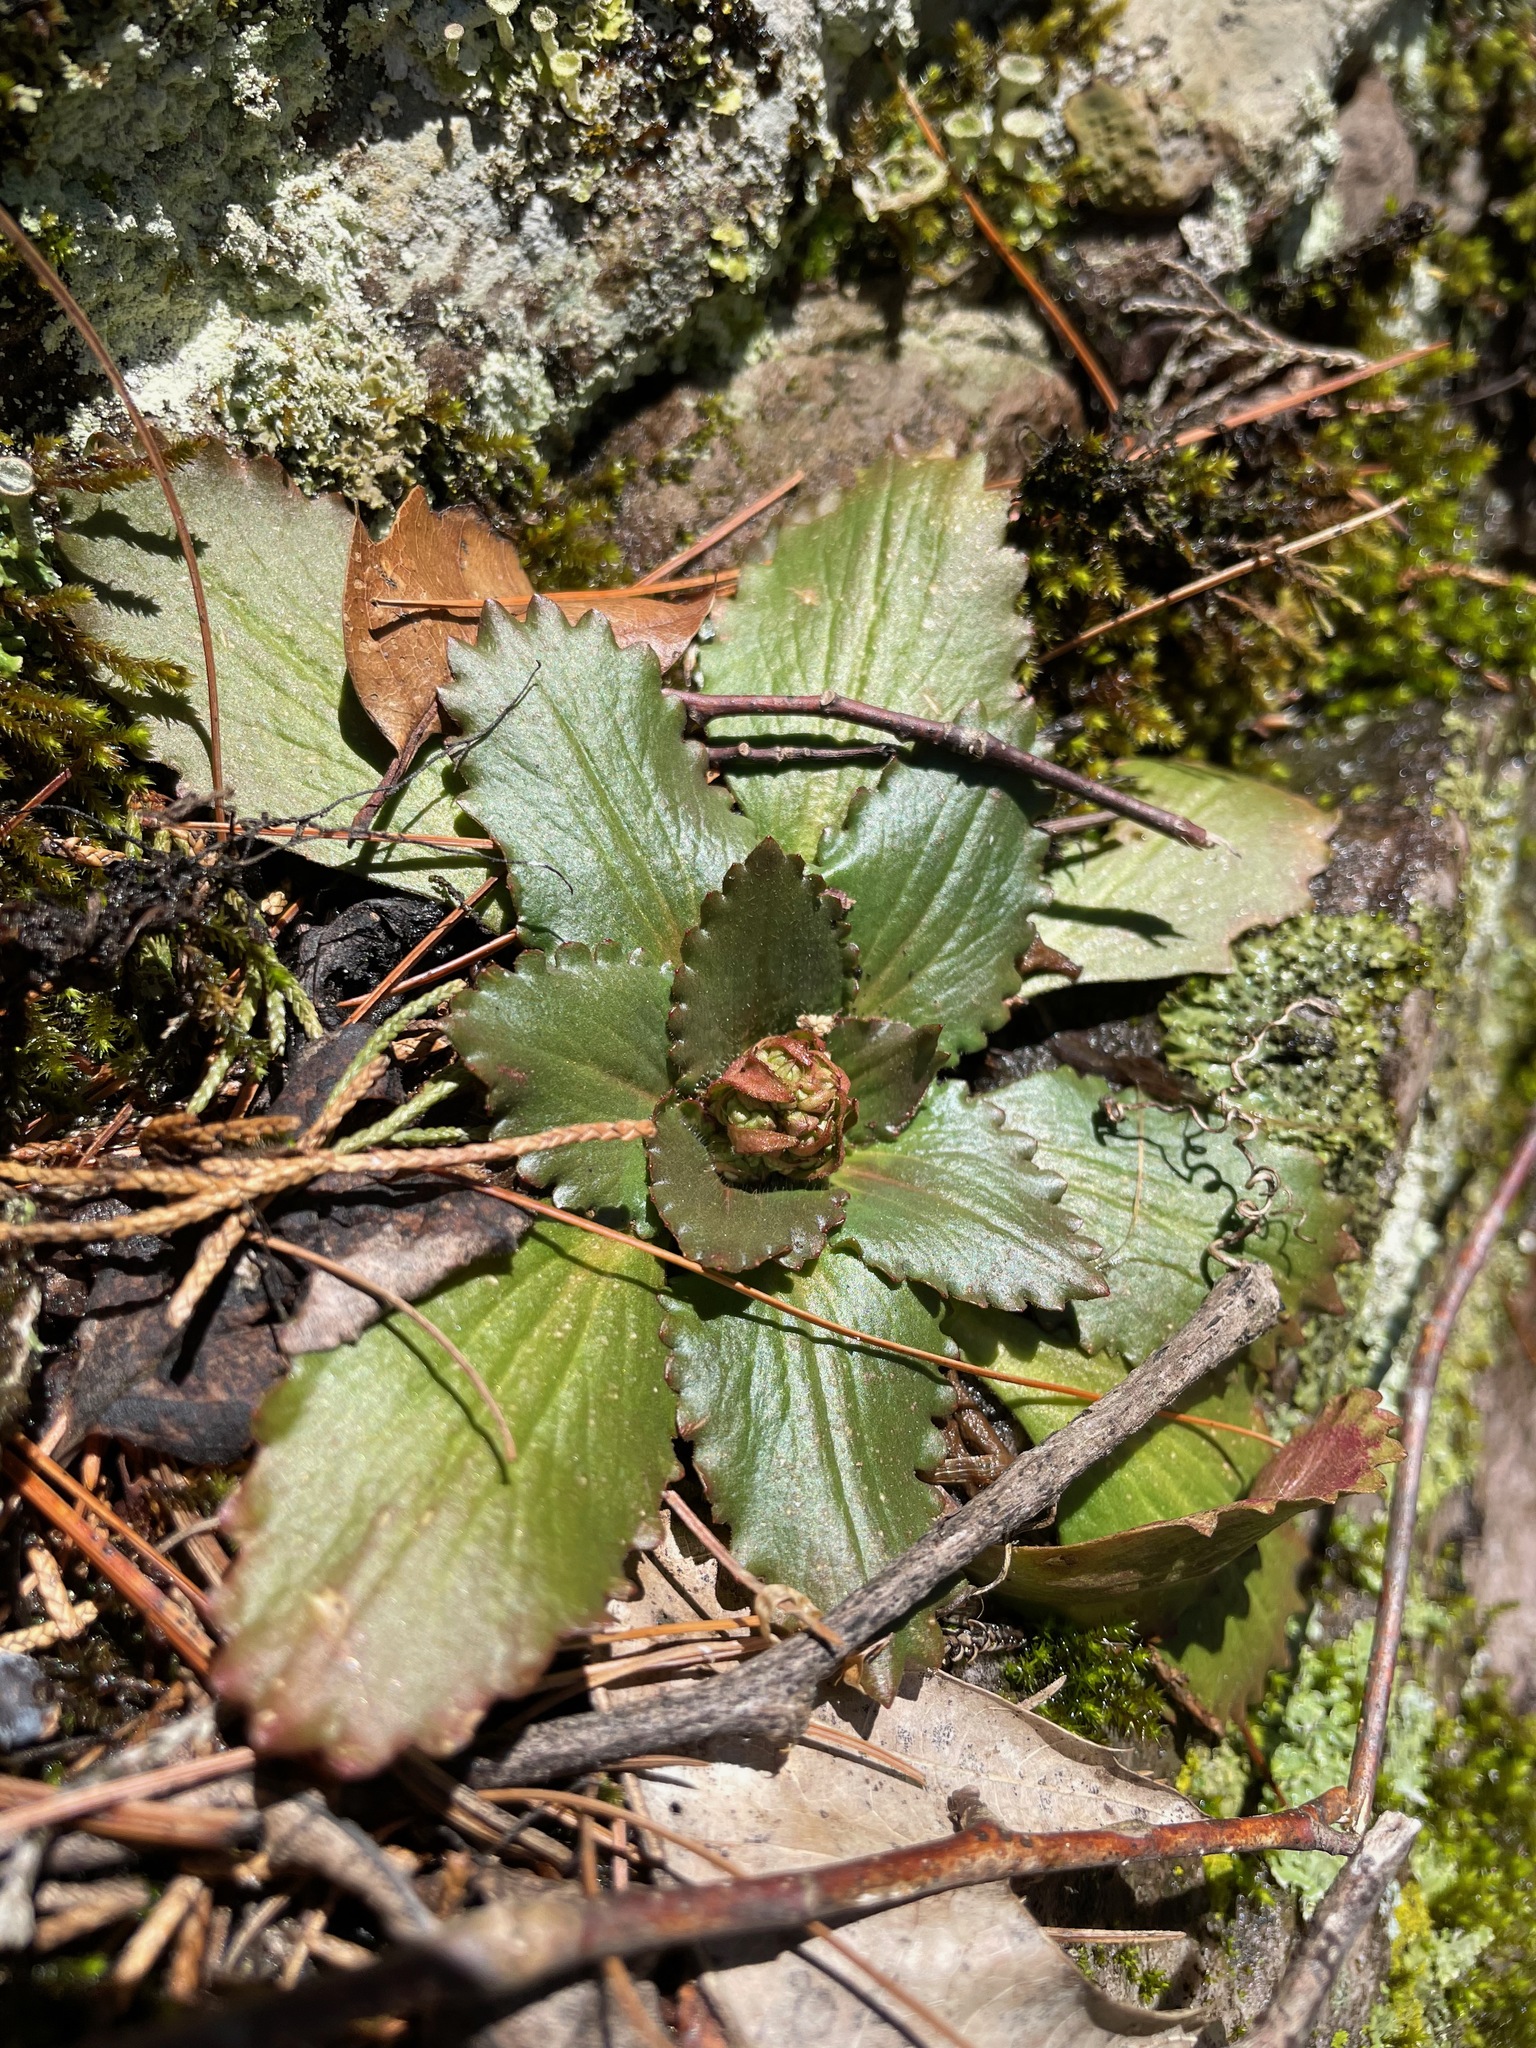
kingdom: Plantae
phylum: Tracheophyta
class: Magnoliopsida
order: Saxifragales
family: Saxifragaceae
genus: Micranthes
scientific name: Micranthes virginiensis
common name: Early saxifrage
